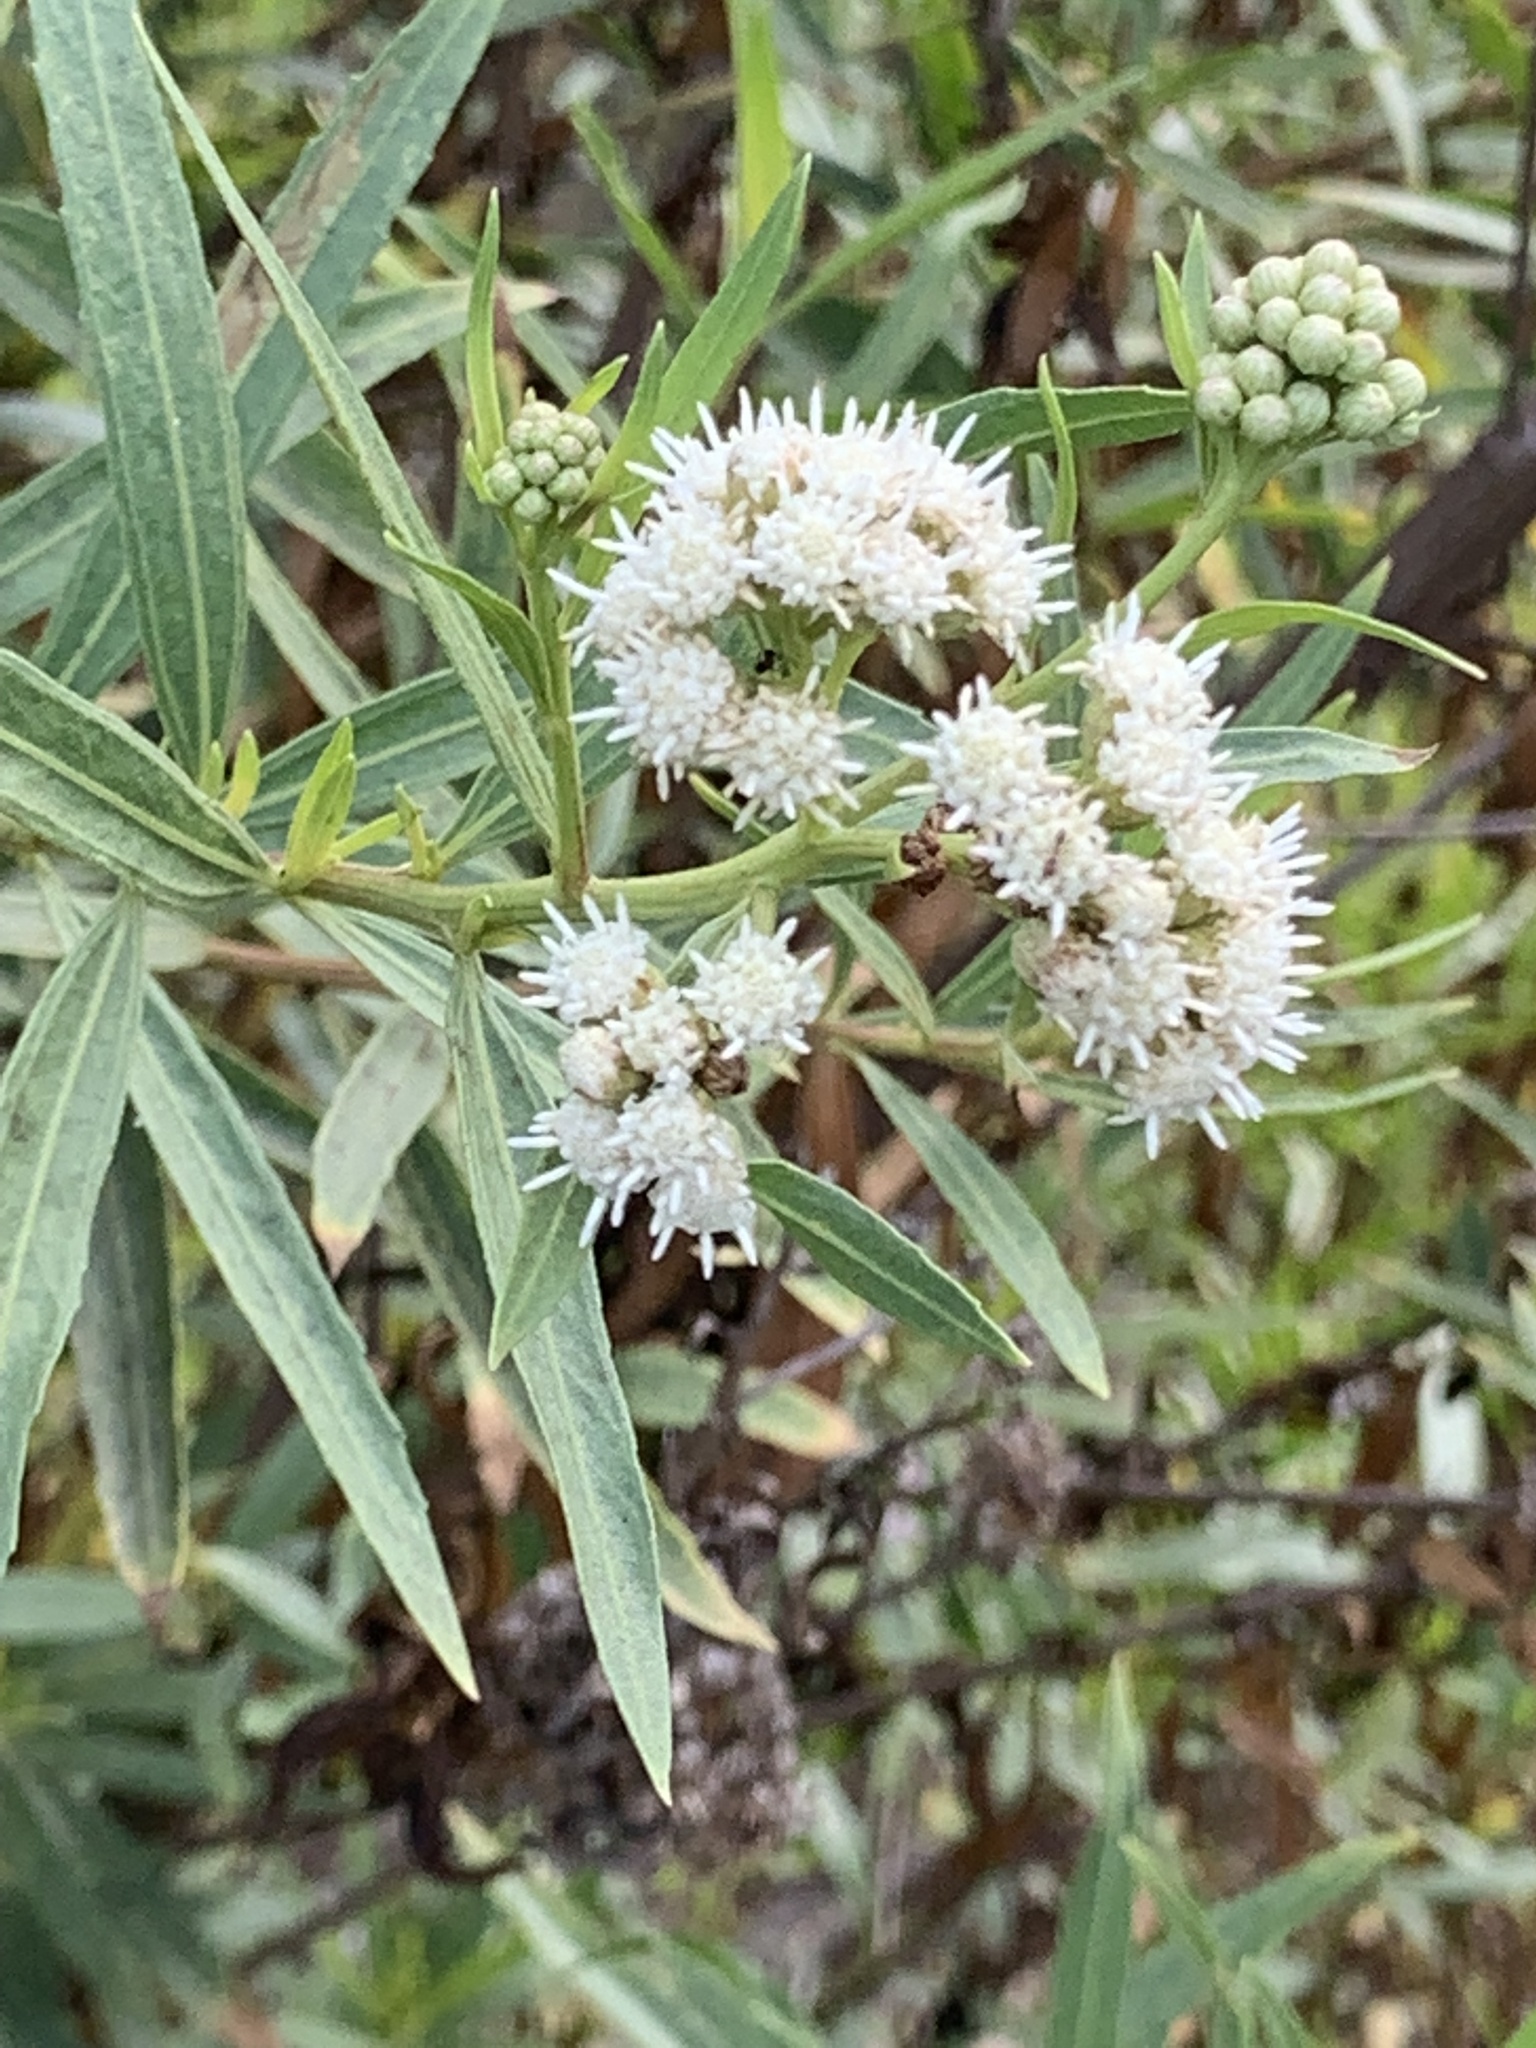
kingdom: Plantae
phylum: Tracheophyta
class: Magnoliopsida
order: Asterales
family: Asteraceae
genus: Baccharis
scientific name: Baccharis salicifolia
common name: Sticky baccharis
